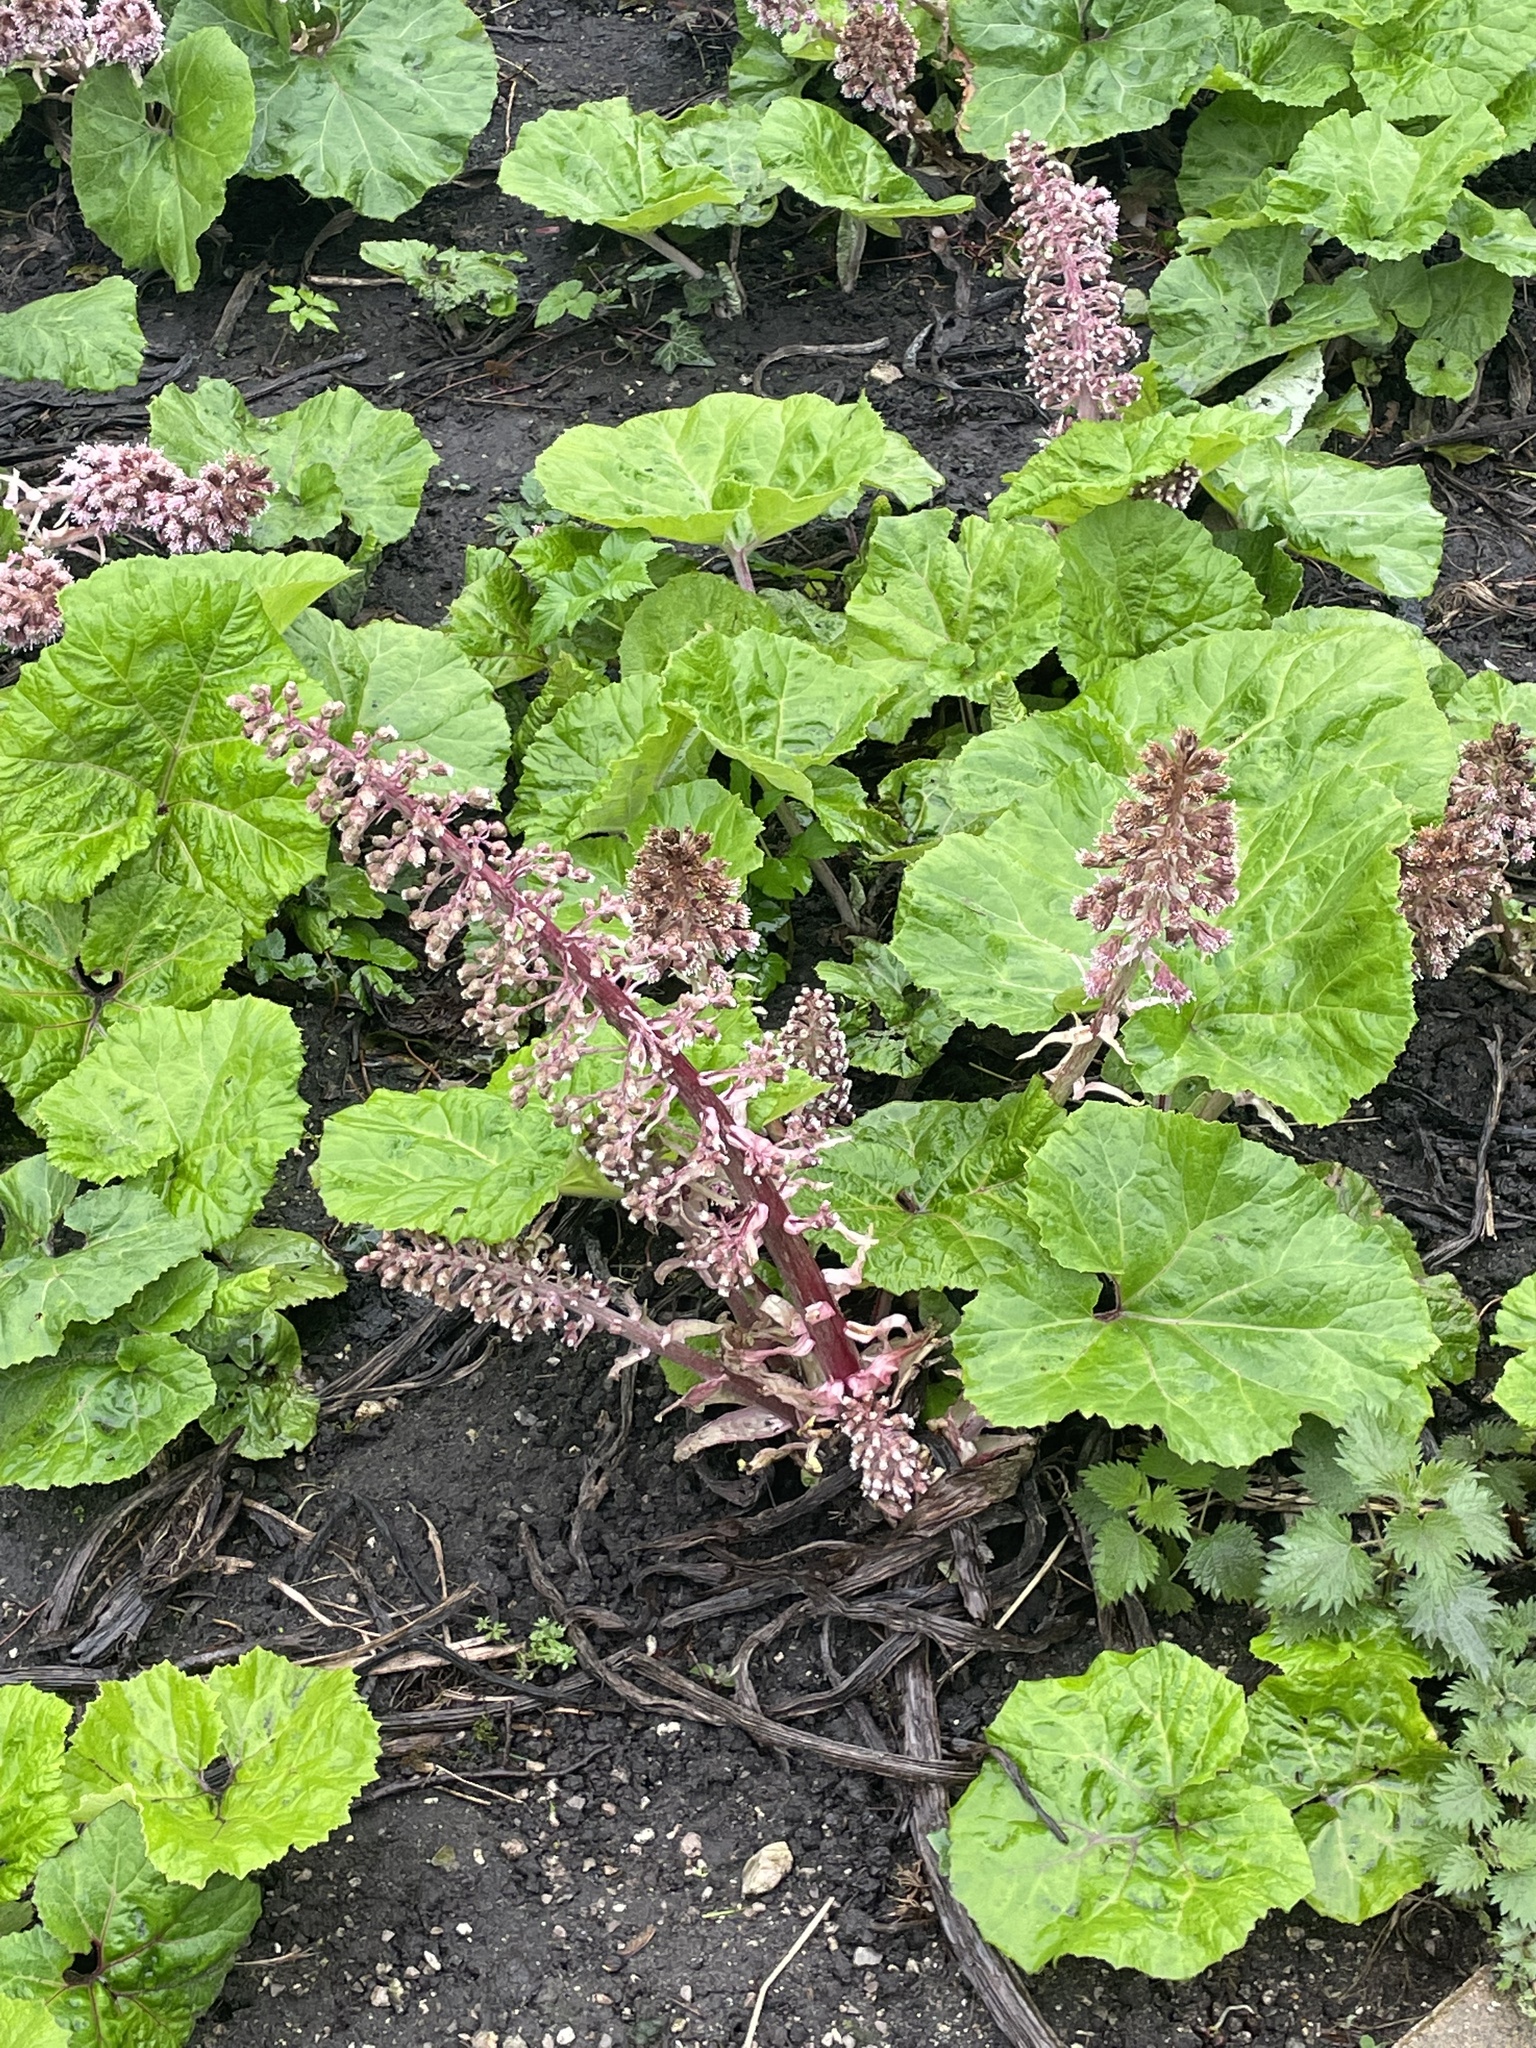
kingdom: Plantae
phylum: Tracheophyta
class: Magnoliopsida
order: Asterales
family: Asteraceae
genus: Petasites
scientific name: Petasites hybridus
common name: Butterbur
